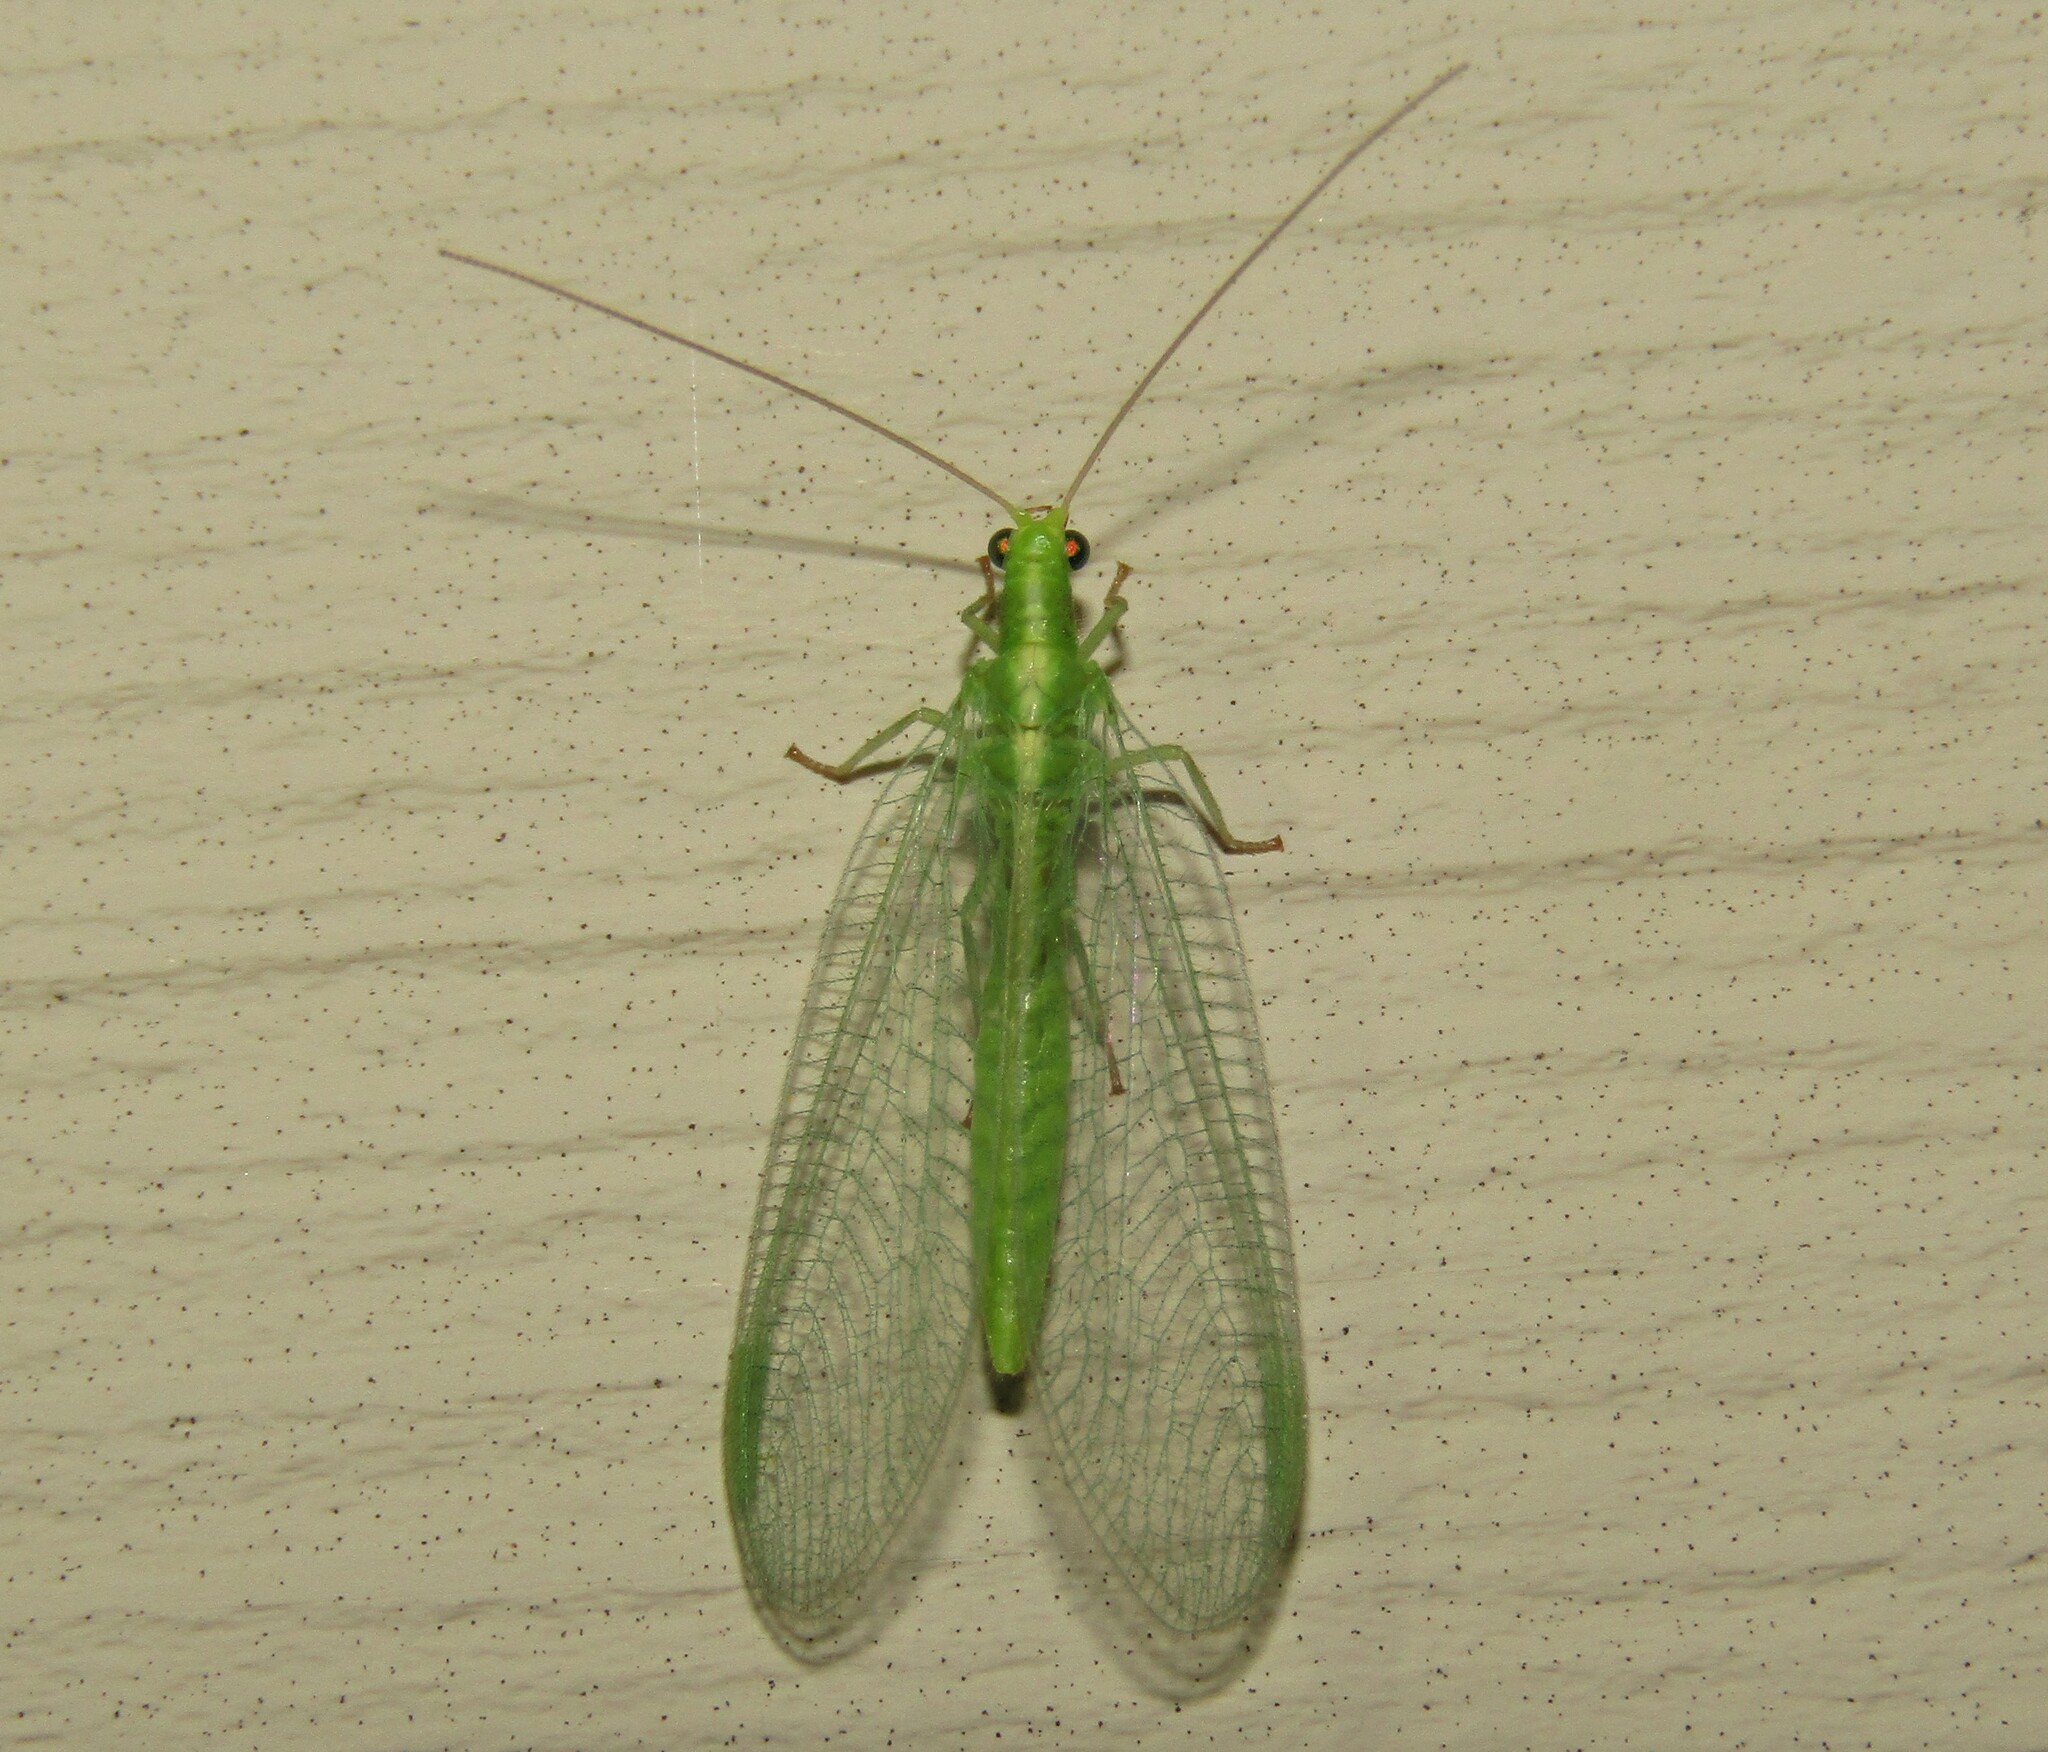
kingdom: Animalia
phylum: Arthropoda
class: Insecta
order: Neuroptera
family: Chrysopidae
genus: Chrysoperla
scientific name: Chrysoperla
